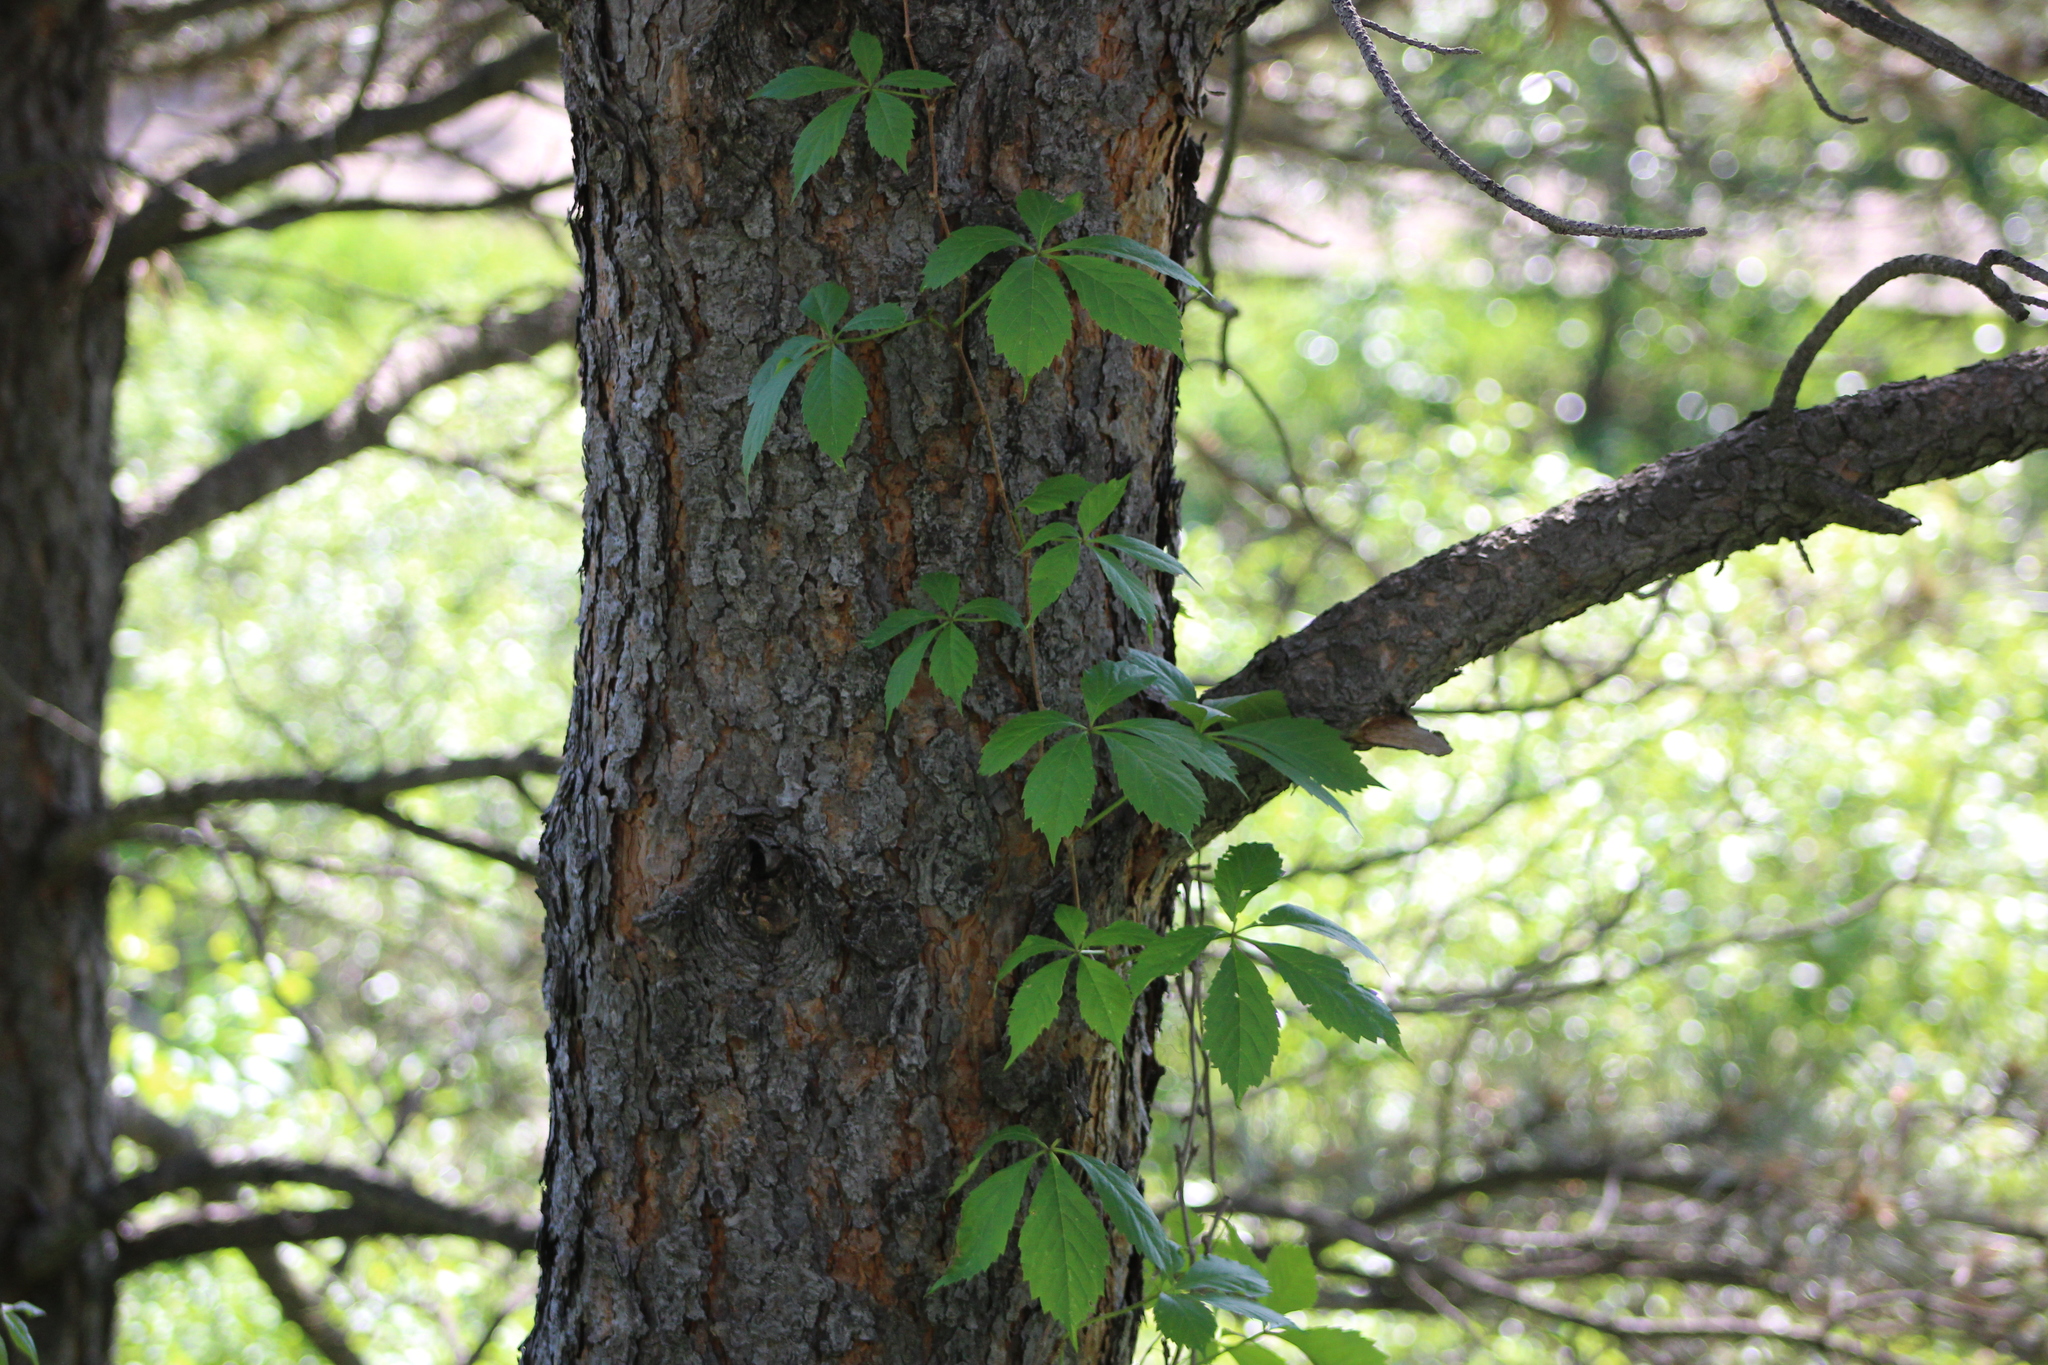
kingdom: Plantae
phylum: Tracheophyta
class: Magnoliopsida
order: Vitales
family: Vitaceae
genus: Parthenocissus
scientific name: Parthenocissus quinquefolia
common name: Virginia-creeper
